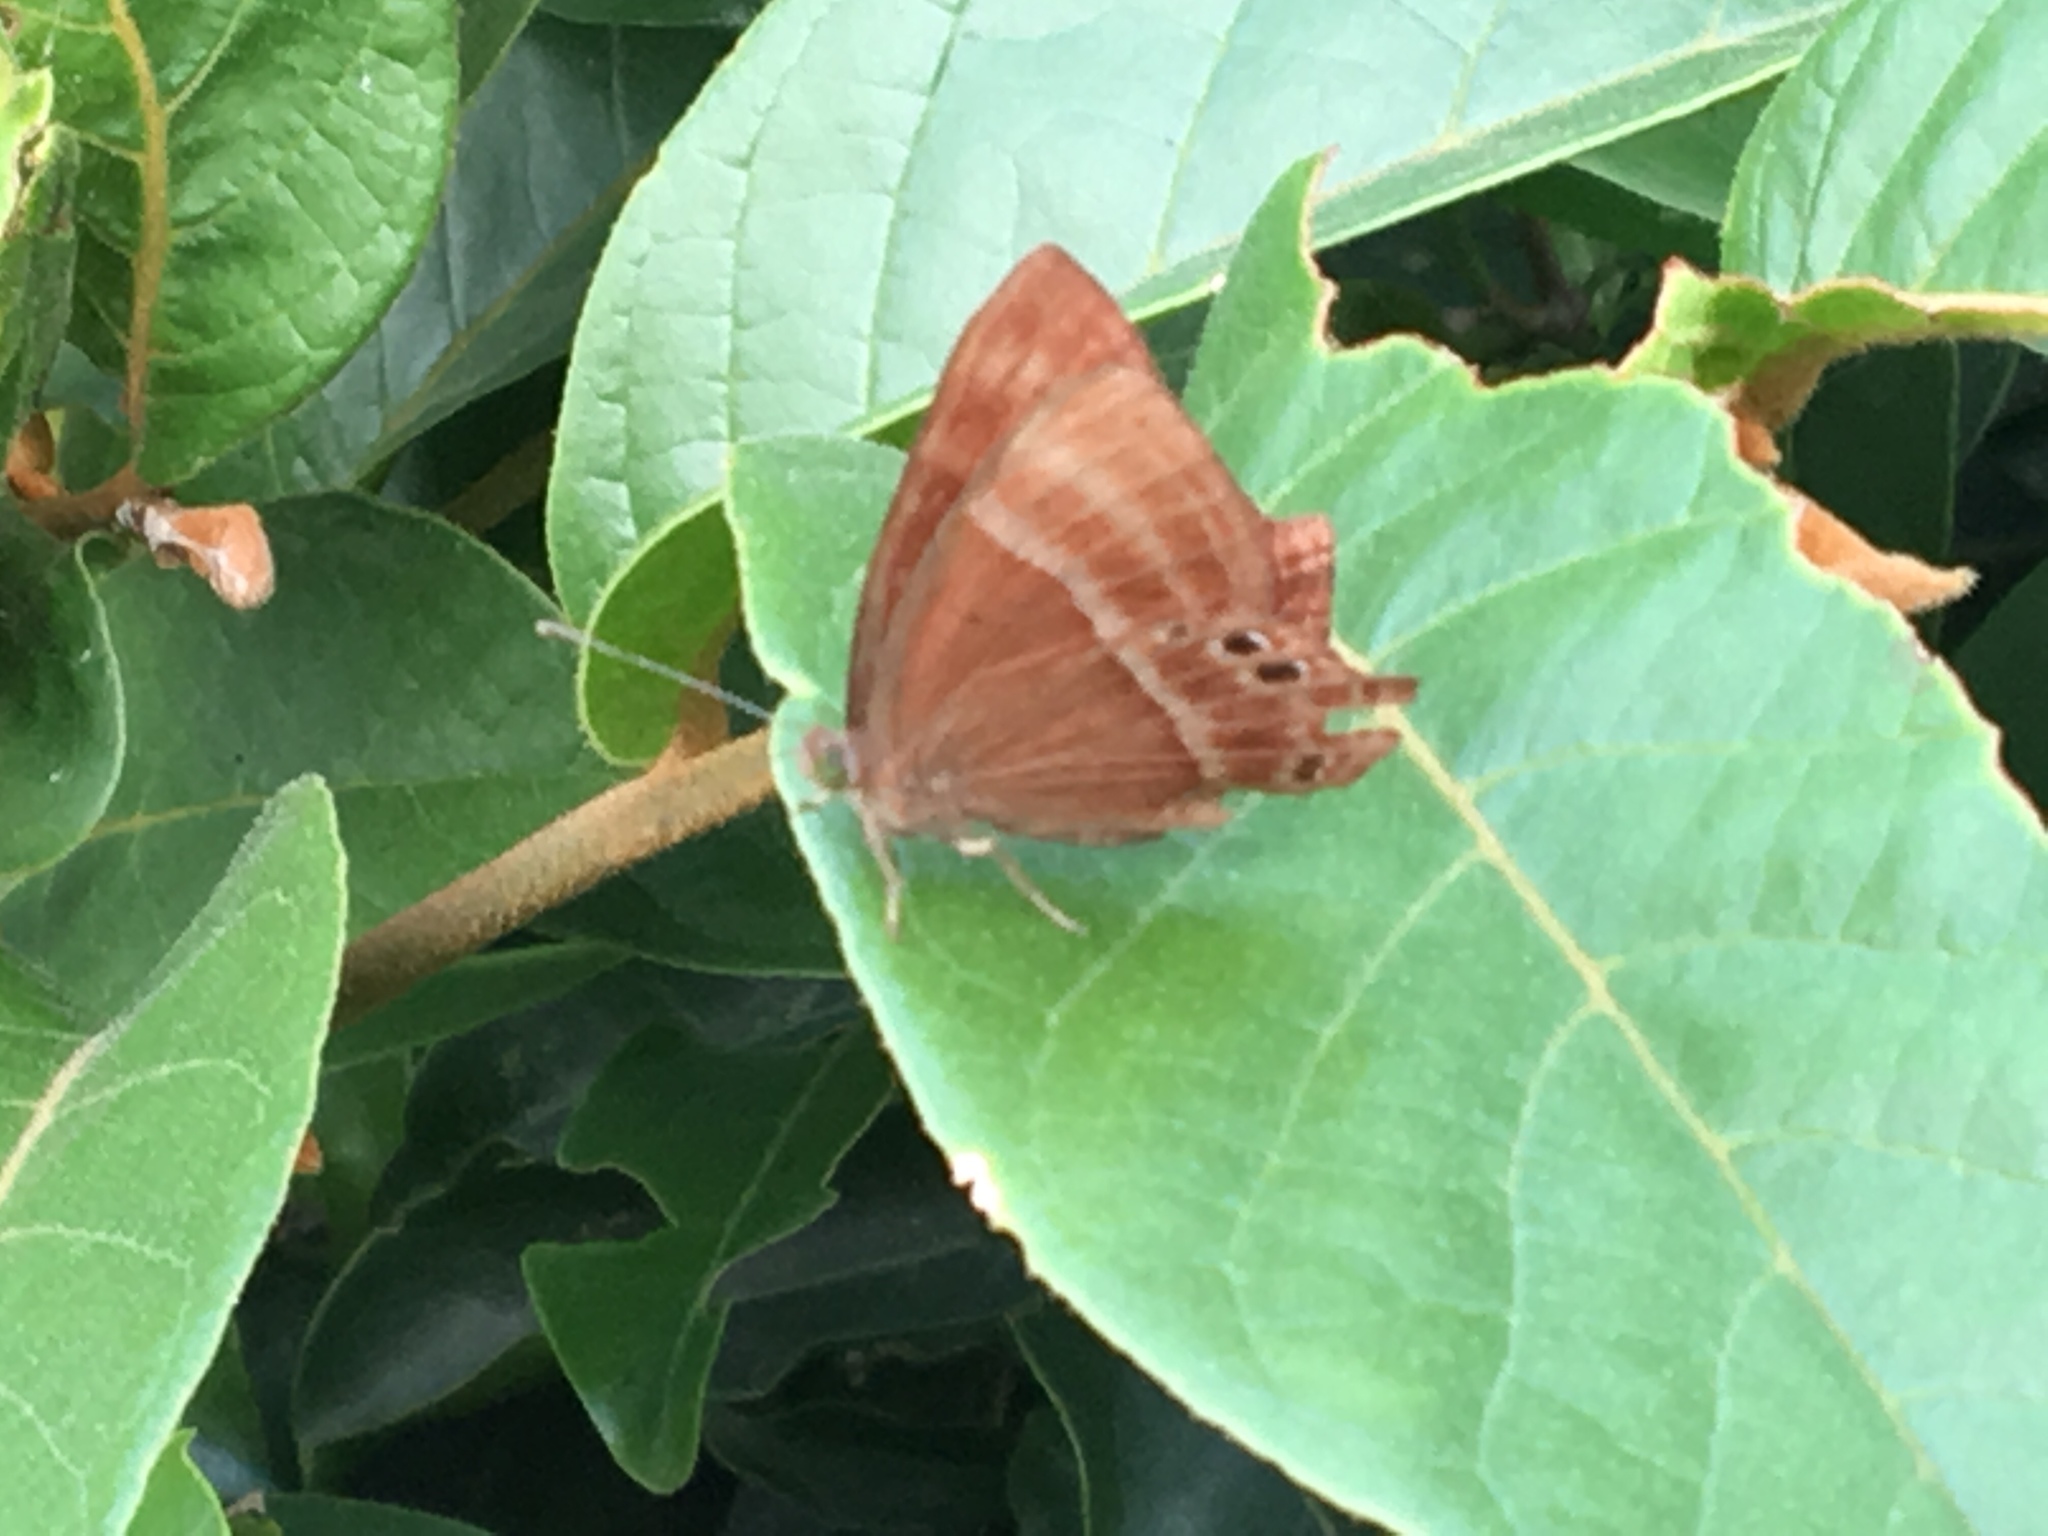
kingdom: Animalia
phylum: Arthropoda
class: Insecta
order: Lepidoptera
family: Lycaenidae
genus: Abisara
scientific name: Abisara echeria
